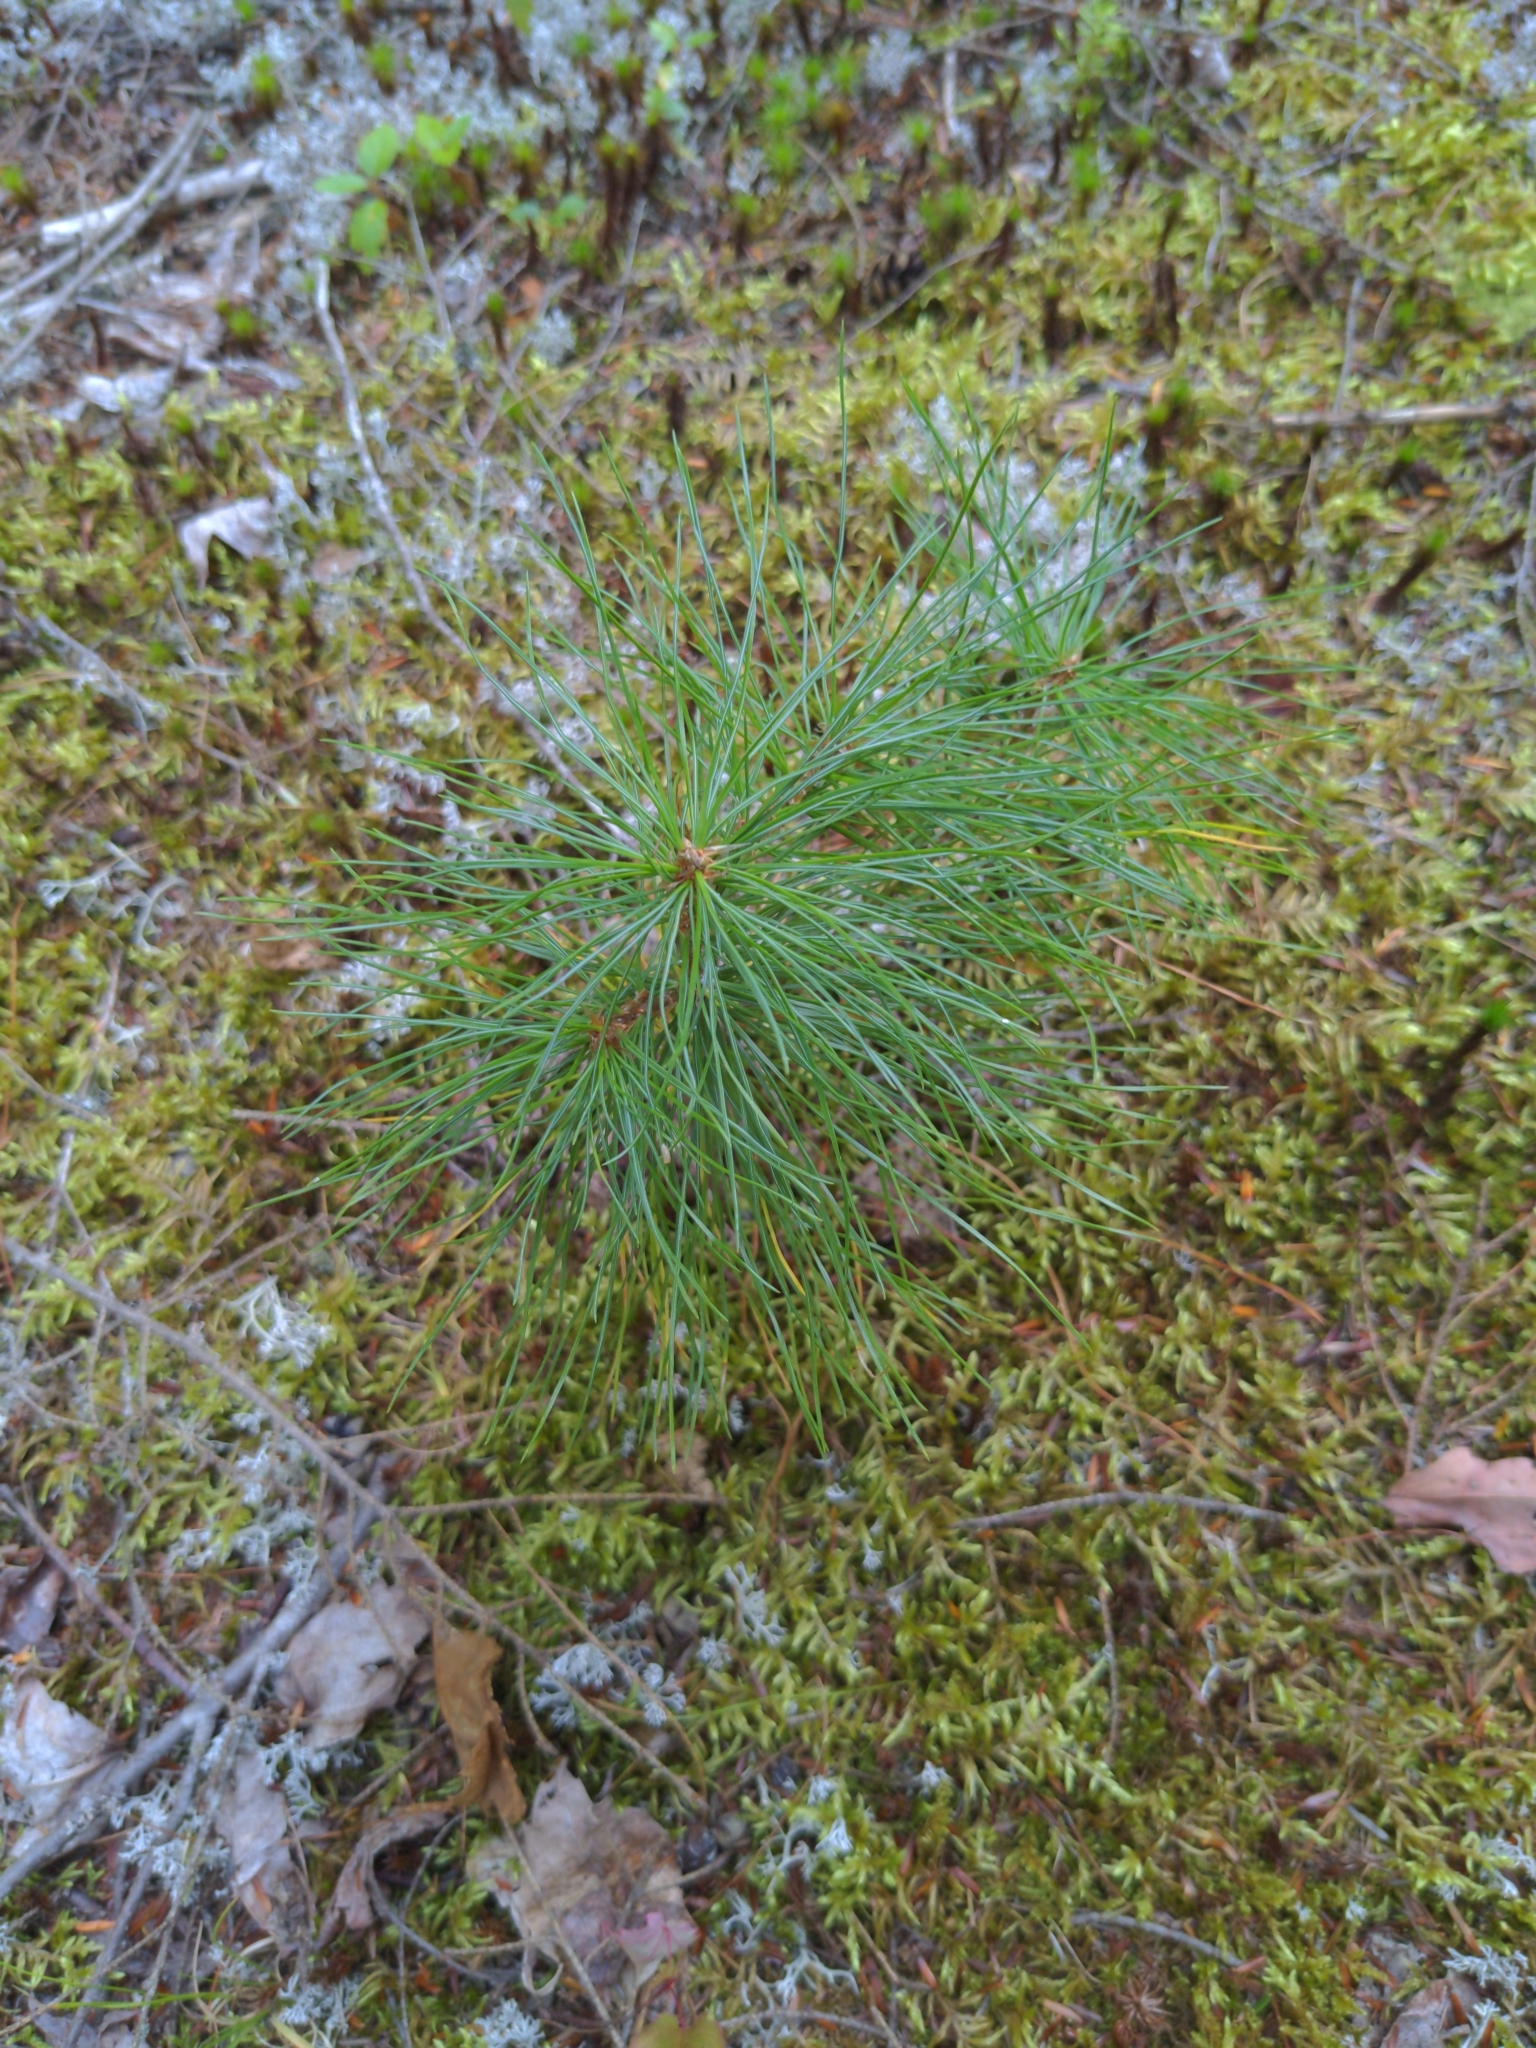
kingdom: Plantae
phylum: Tracheophyta
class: Pinopsida
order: Pinales
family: Pinaceae
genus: Pinus
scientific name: Pinus strobus
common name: Weymouth pine
